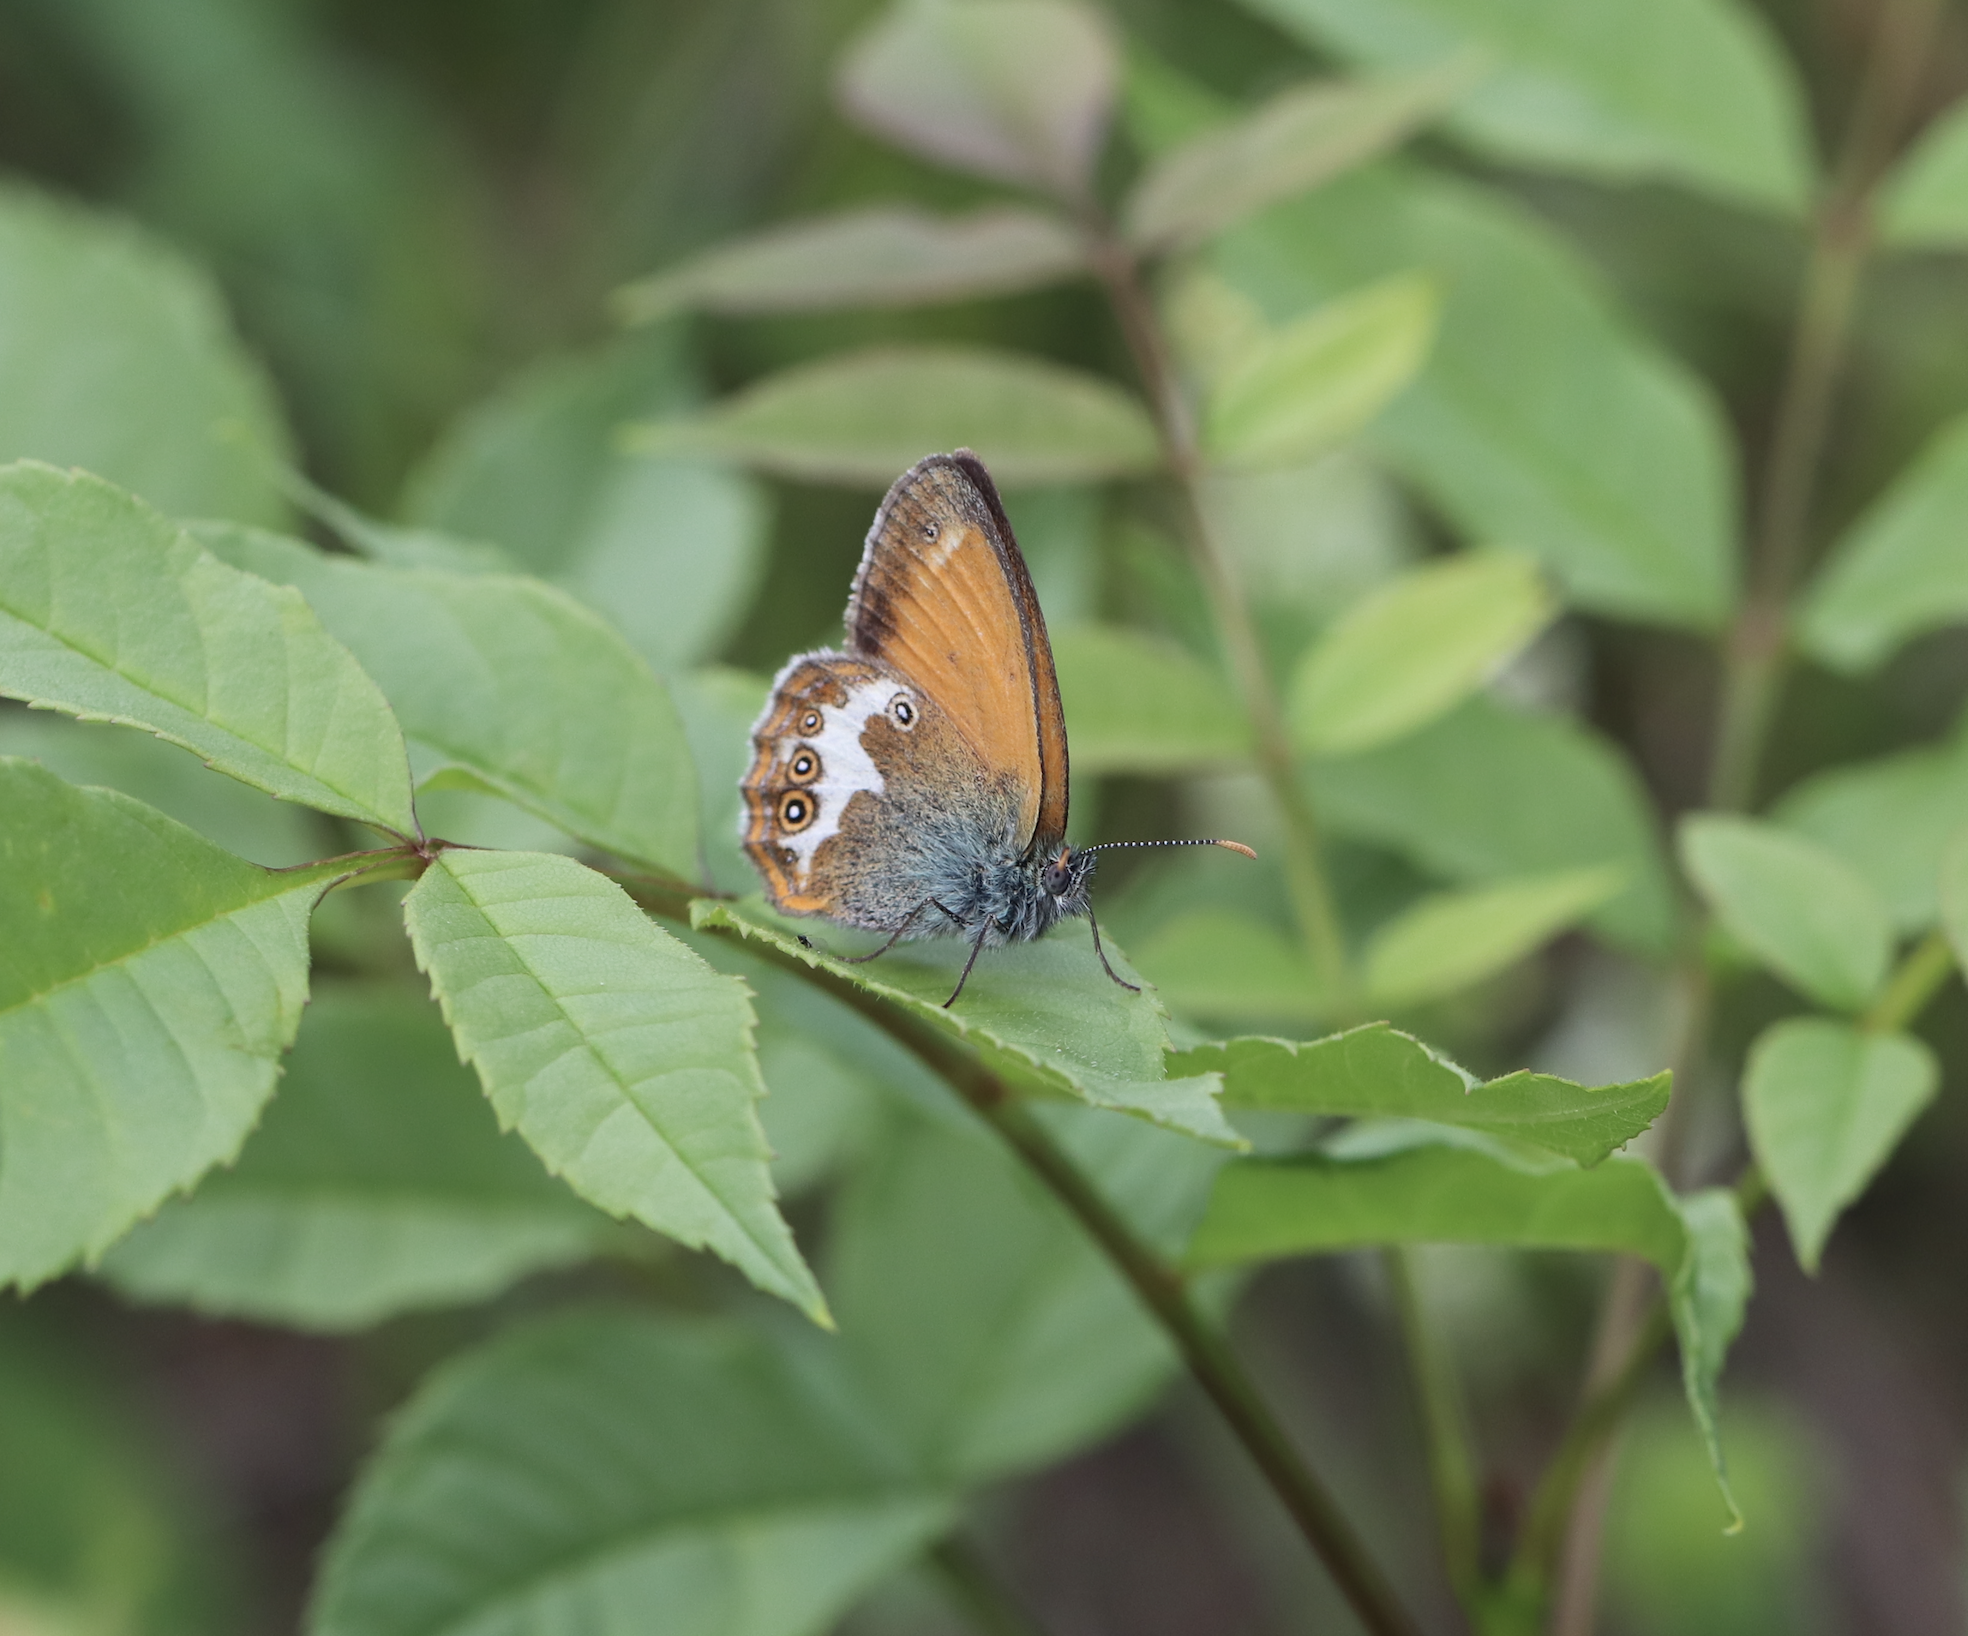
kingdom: Animalia
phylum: Arthropoda
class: Insecta
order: Lepidoptera
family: Nymphalidae
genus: Coenonympha
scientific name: Coenonympha arcania
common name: Pearly heath
